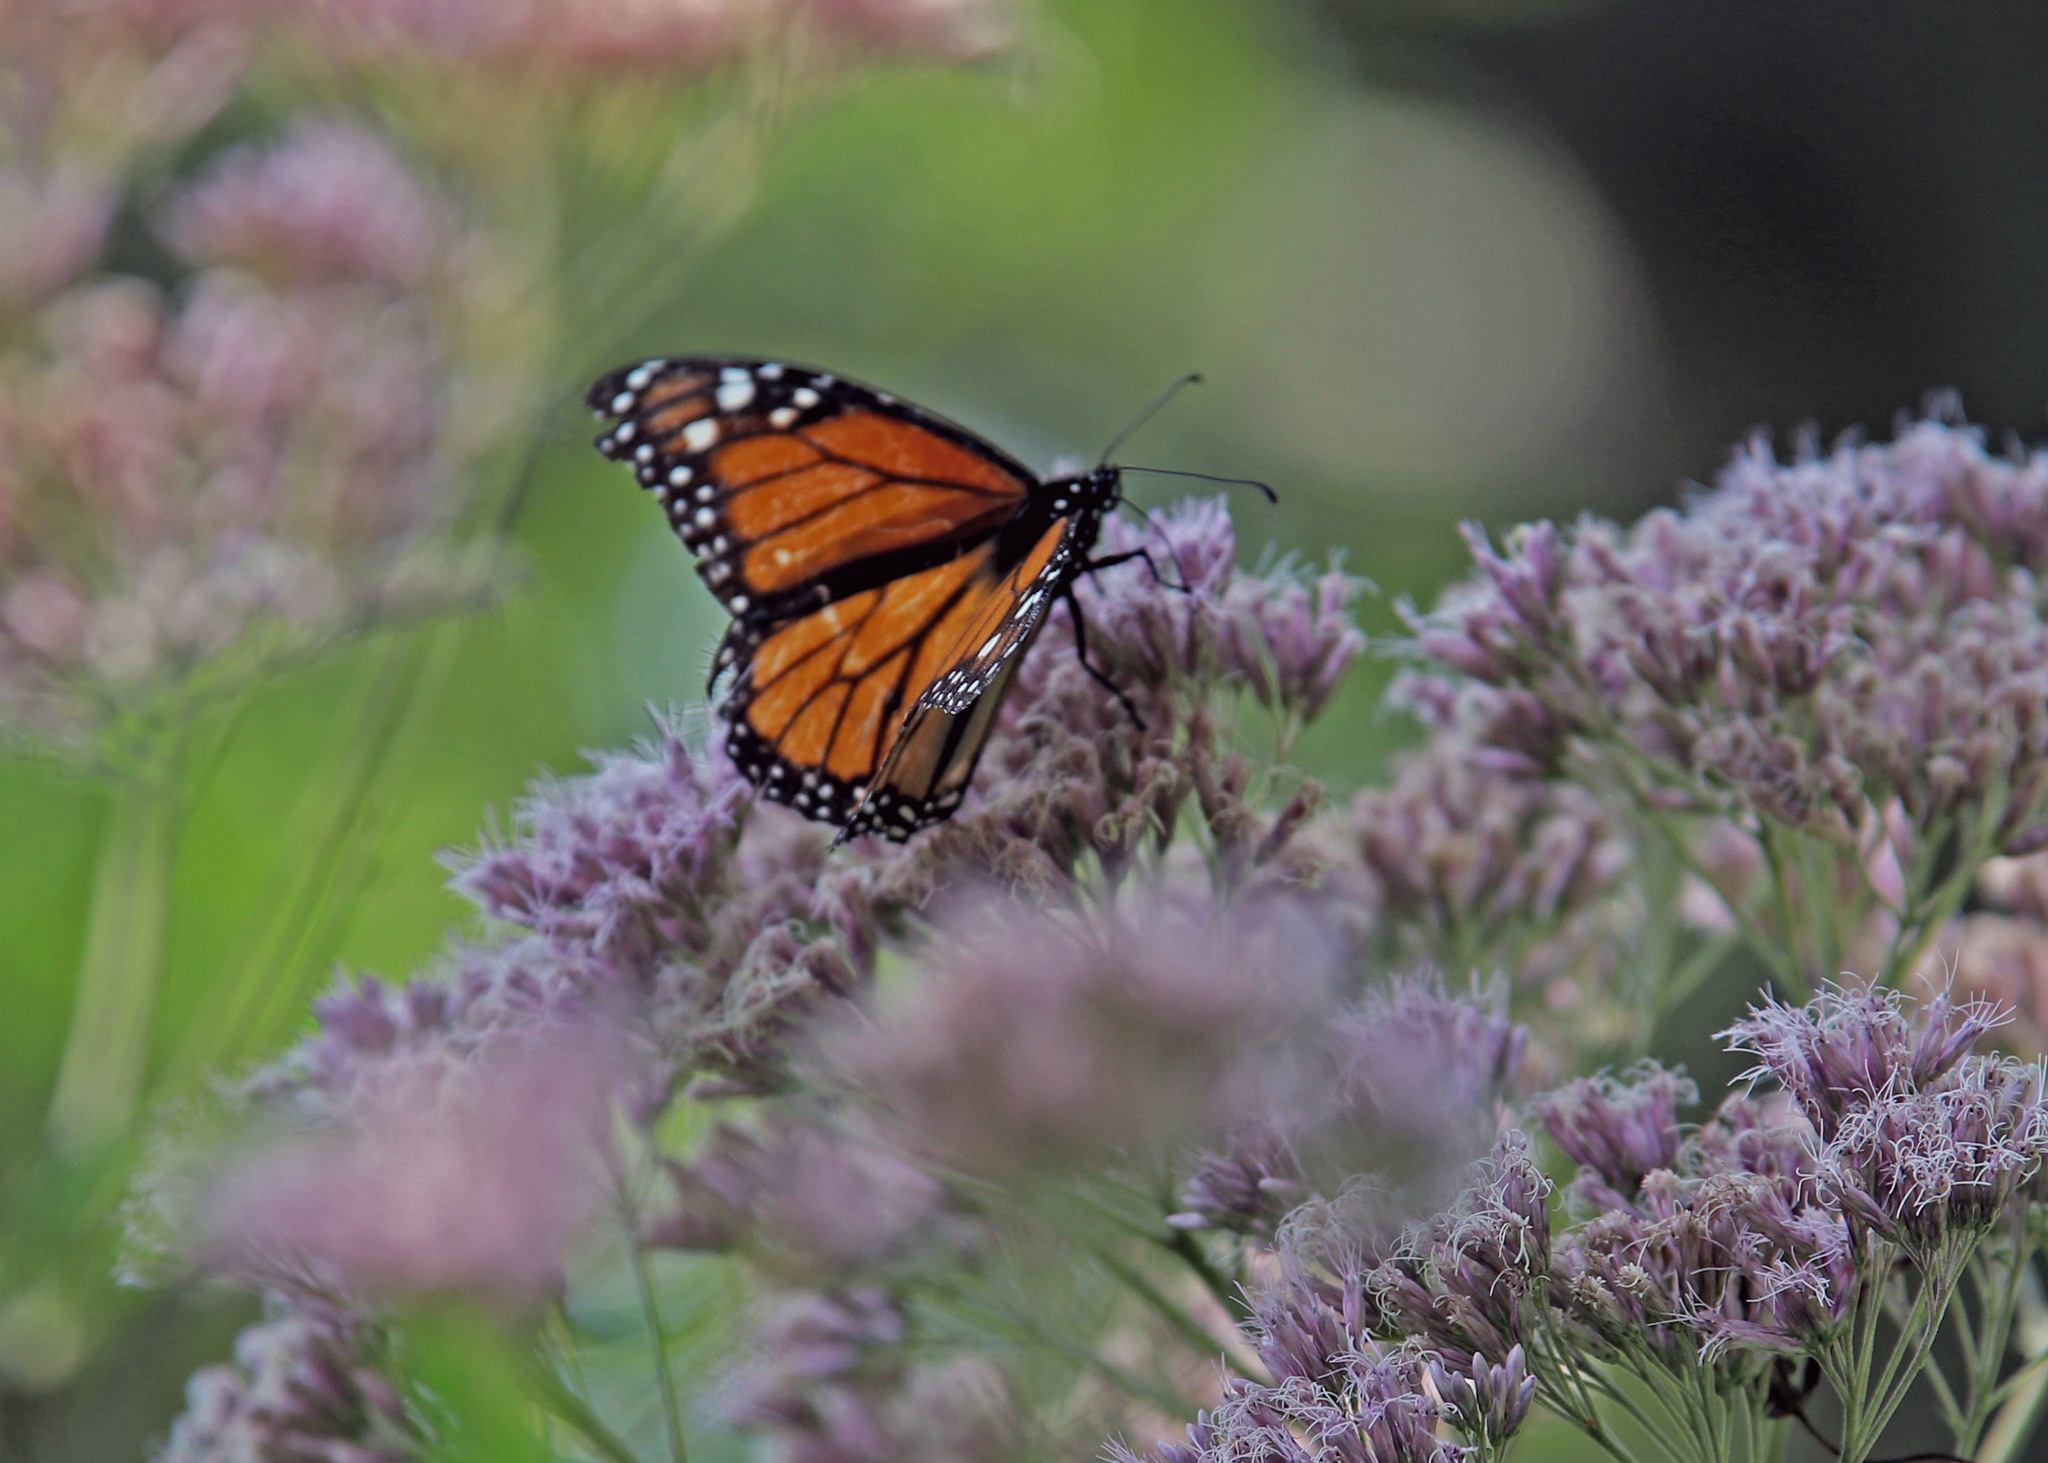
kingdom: Animalia
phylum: Arthropoda
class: Insecta
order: Lepidoptera
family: Nymphalidae
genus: Danaus
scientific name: Danaus plexippus
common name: Monarch
